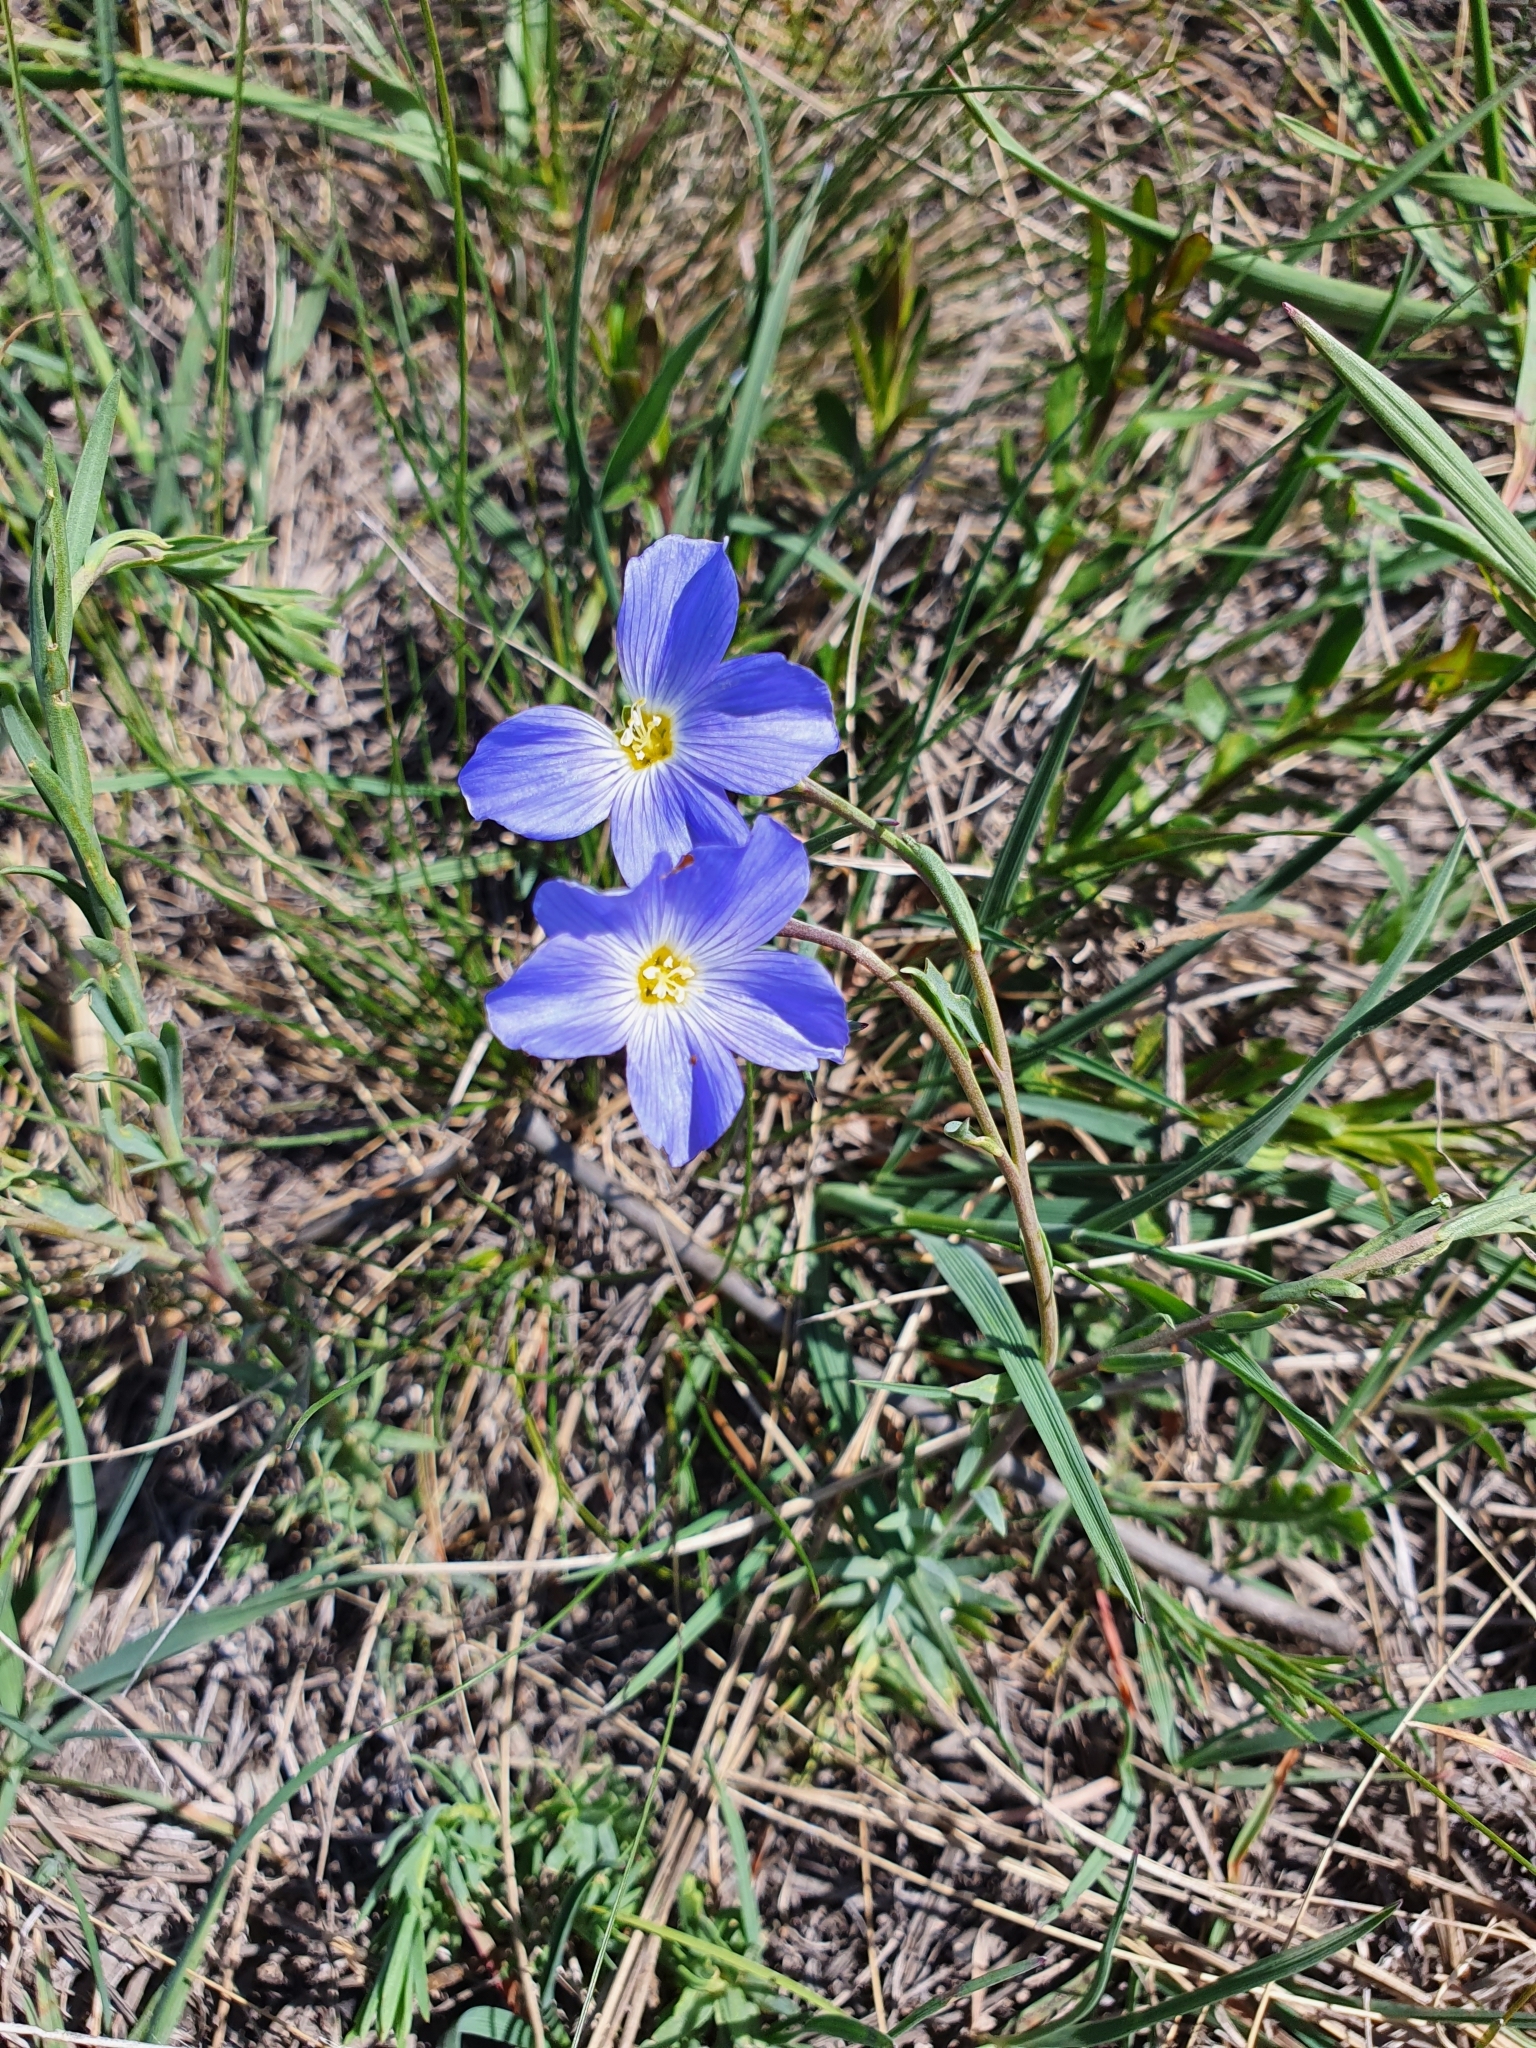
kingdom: Plantae
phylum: Tracheophyta
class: Magnoliopsida
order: Malpighiales
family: Linaceae
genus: Linum
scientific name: Linum perenne
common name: Blue flax
